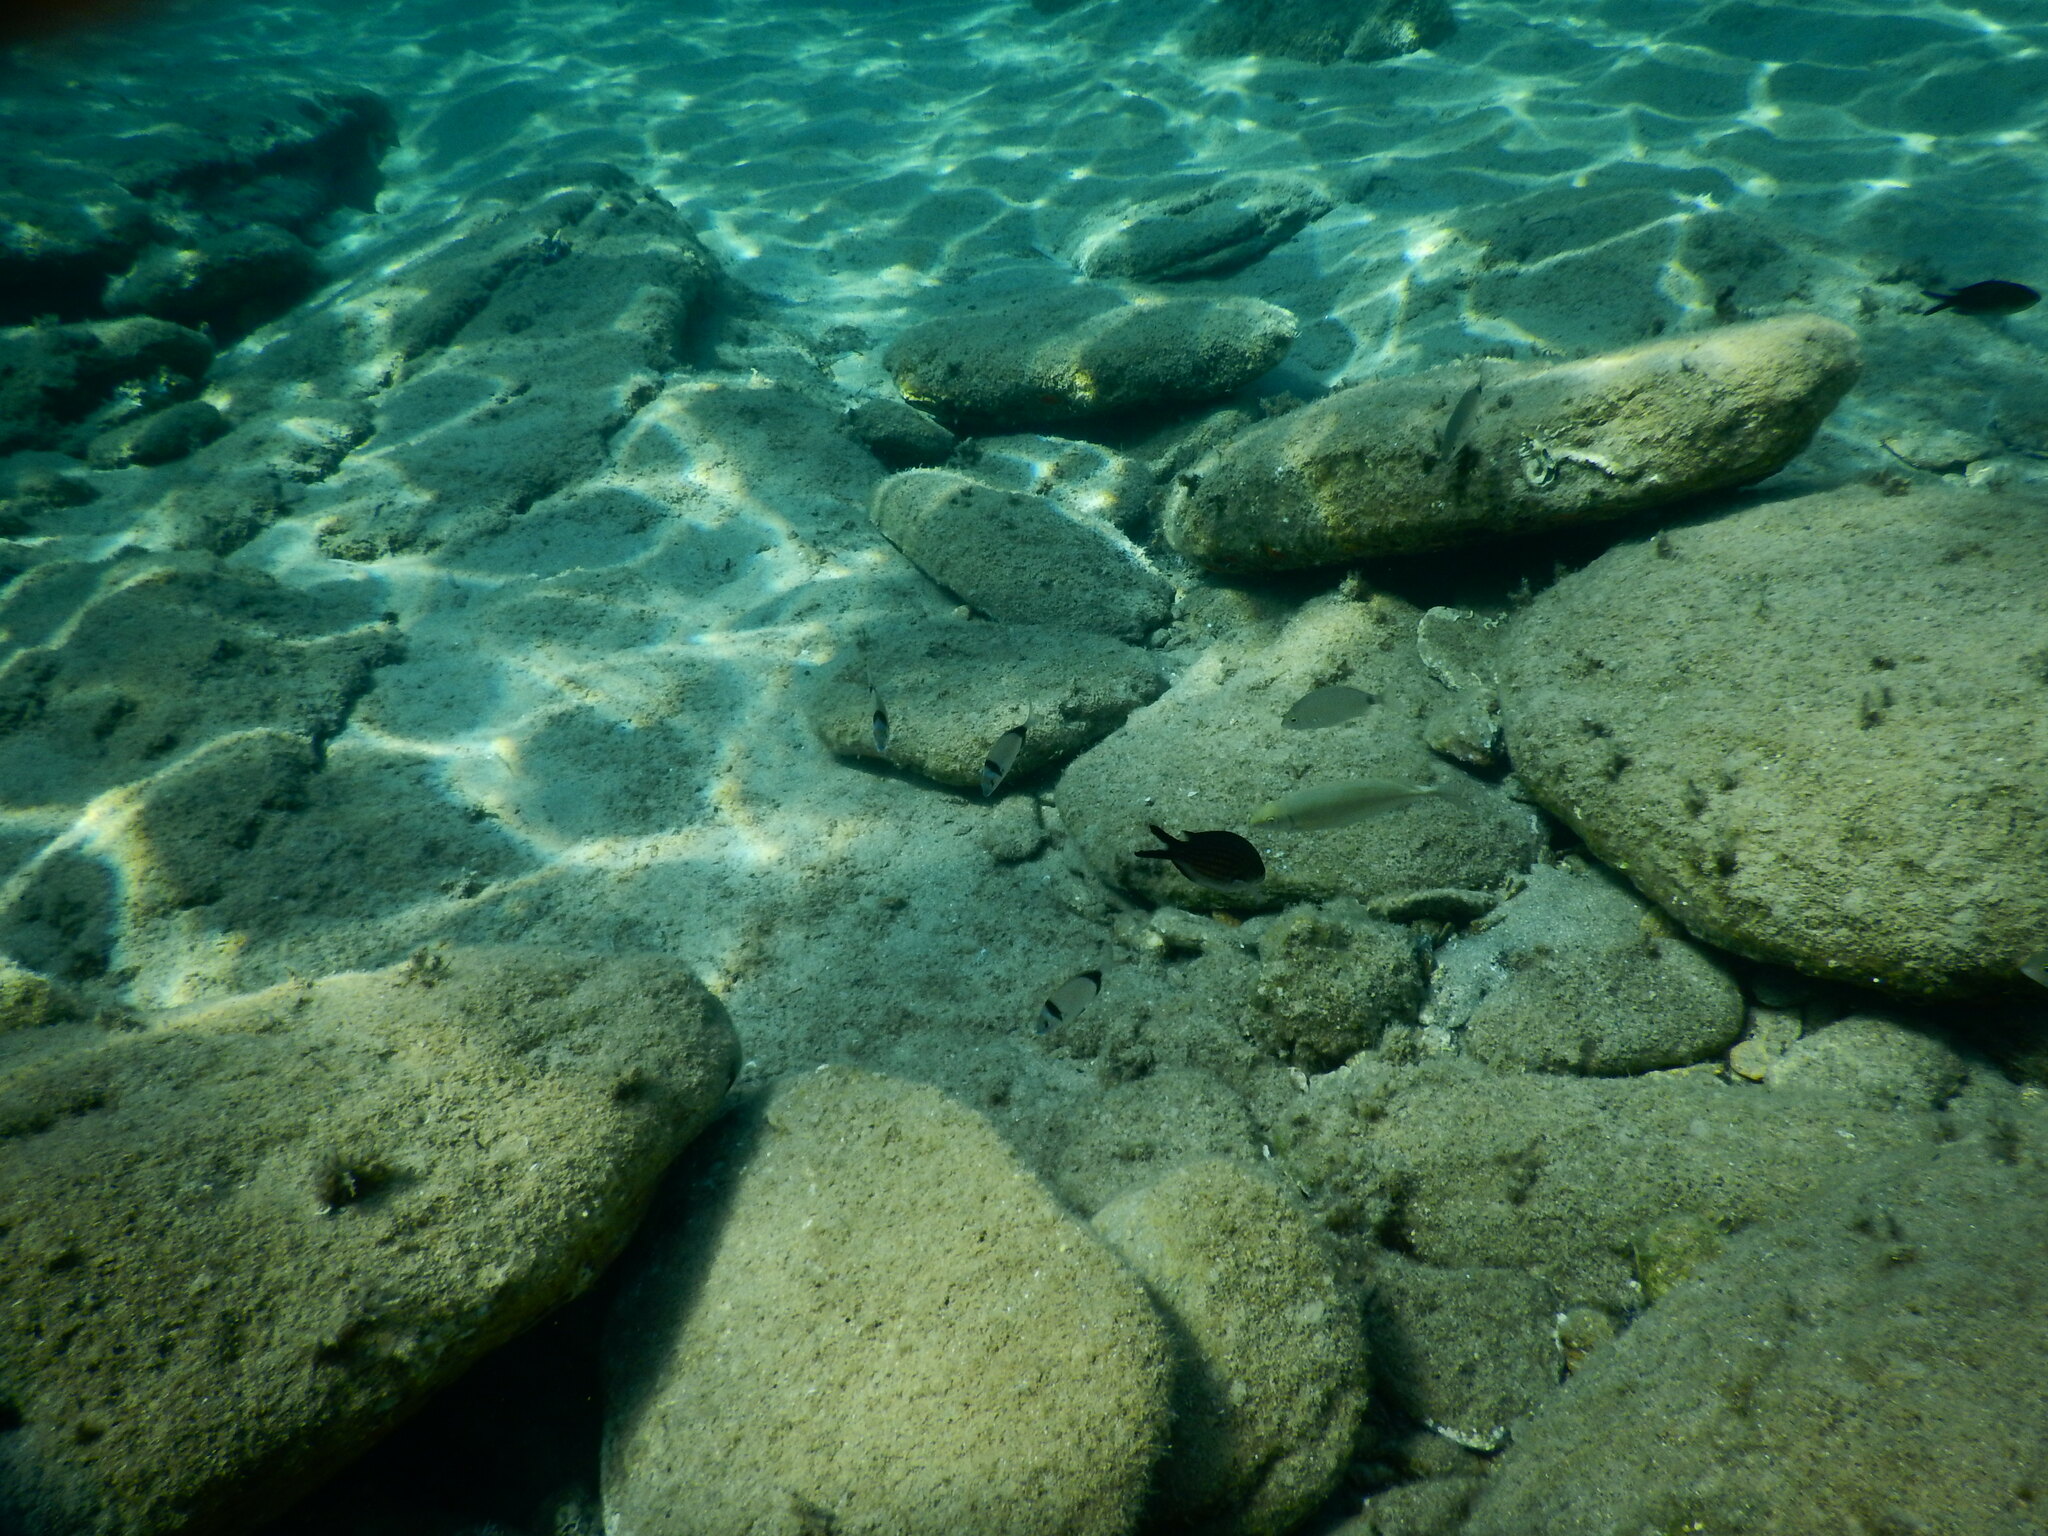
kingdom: Animalia
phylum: Chordata
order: Perciformes
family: Pomacentridae
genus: Chromis
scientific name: Chromis chromis
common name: Damselfish
